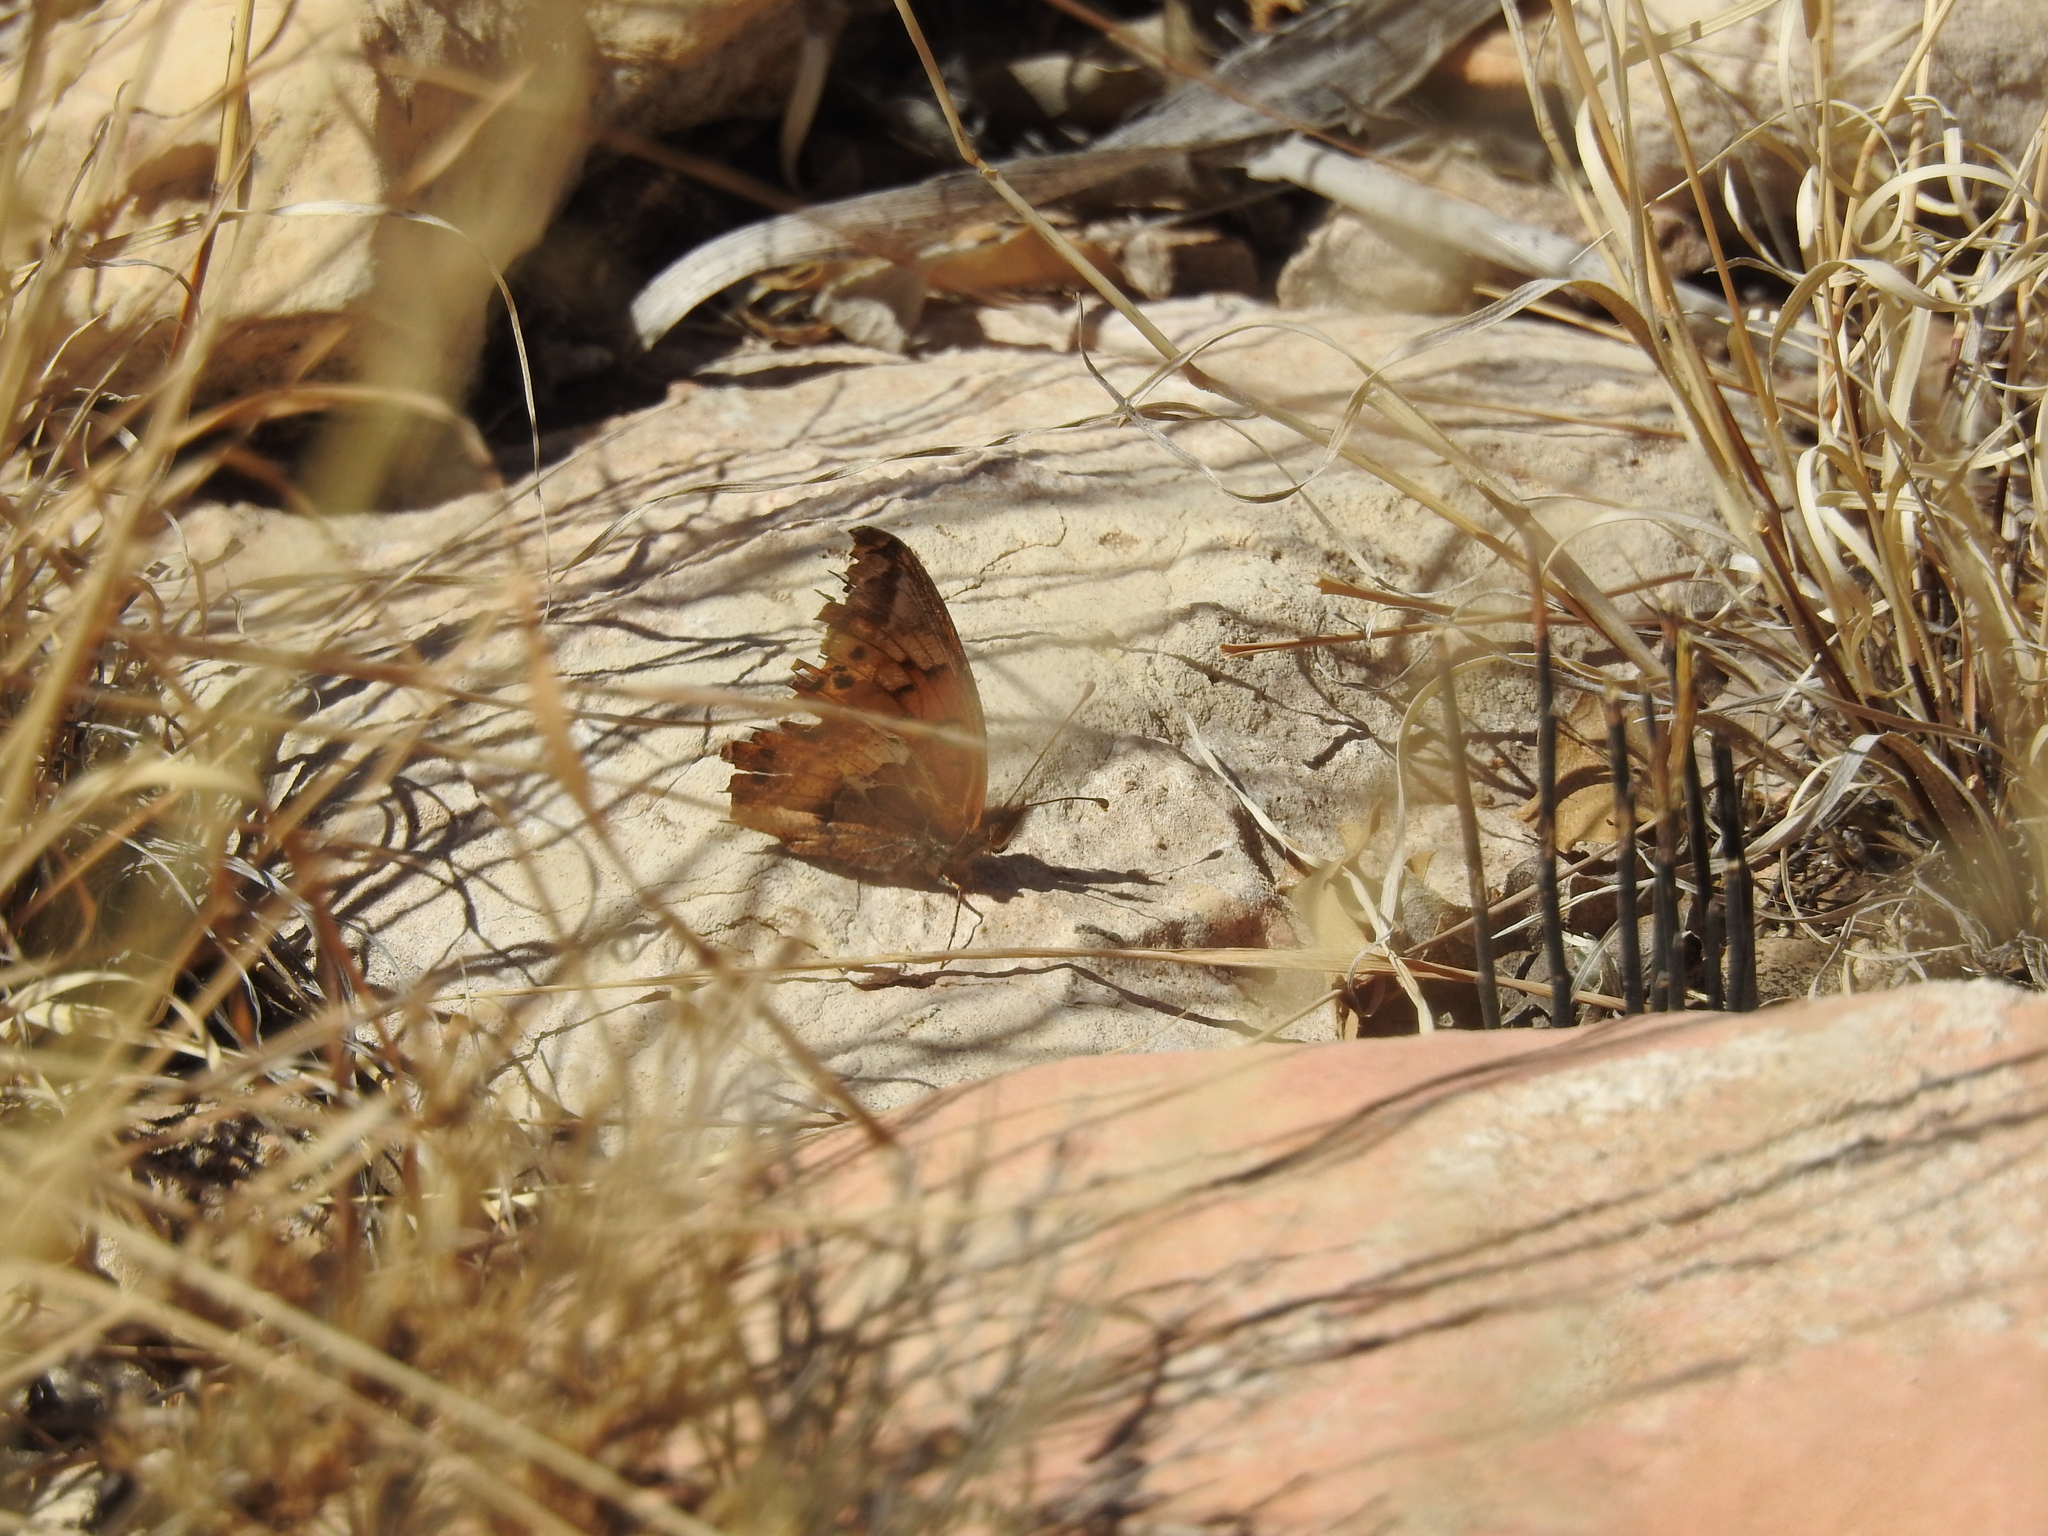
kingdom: Animalia
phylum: Arthropoda
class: Insecta
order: Lepidoptera
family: Nymphalidae
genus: Euptoieta
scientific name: Euptoieta claudia
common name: Variegated fritillary
